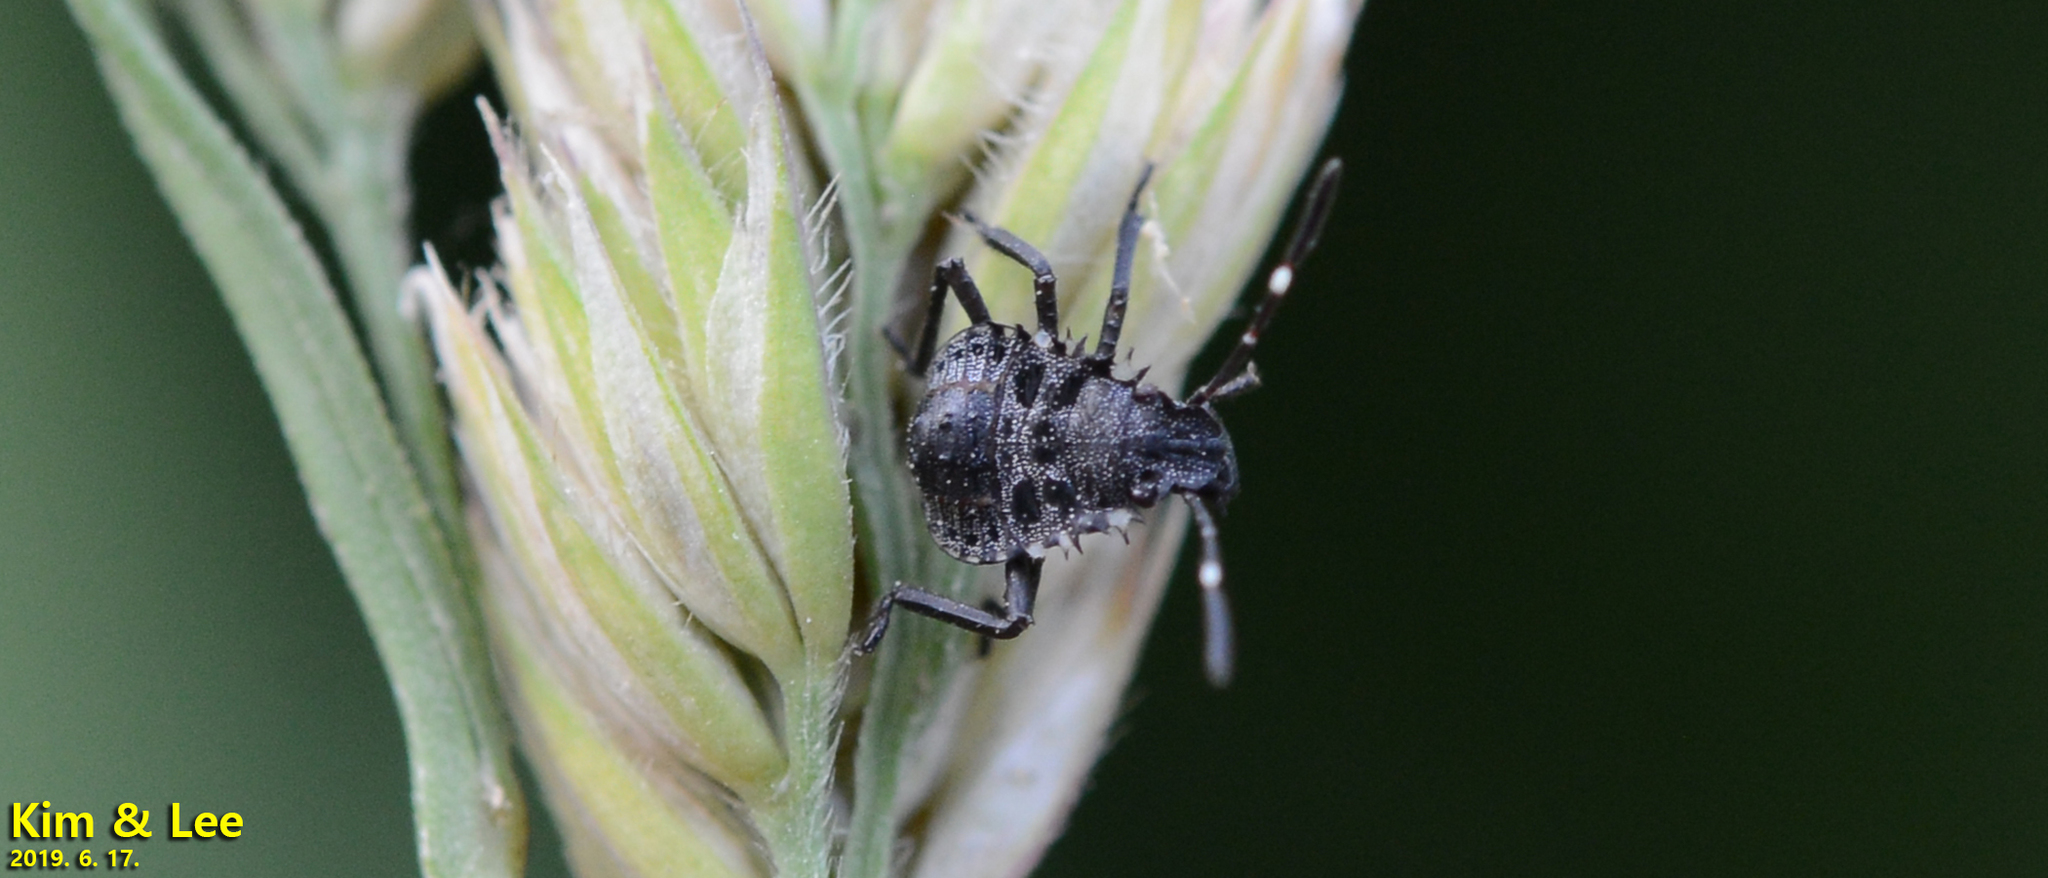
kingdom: Animalia
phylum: Arthropoda
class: Insecta
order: Hemiptera
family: Pentatomidae
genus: Halyomorpha
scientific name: Halyomorpha halys
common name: Brown marmorated stink bug
